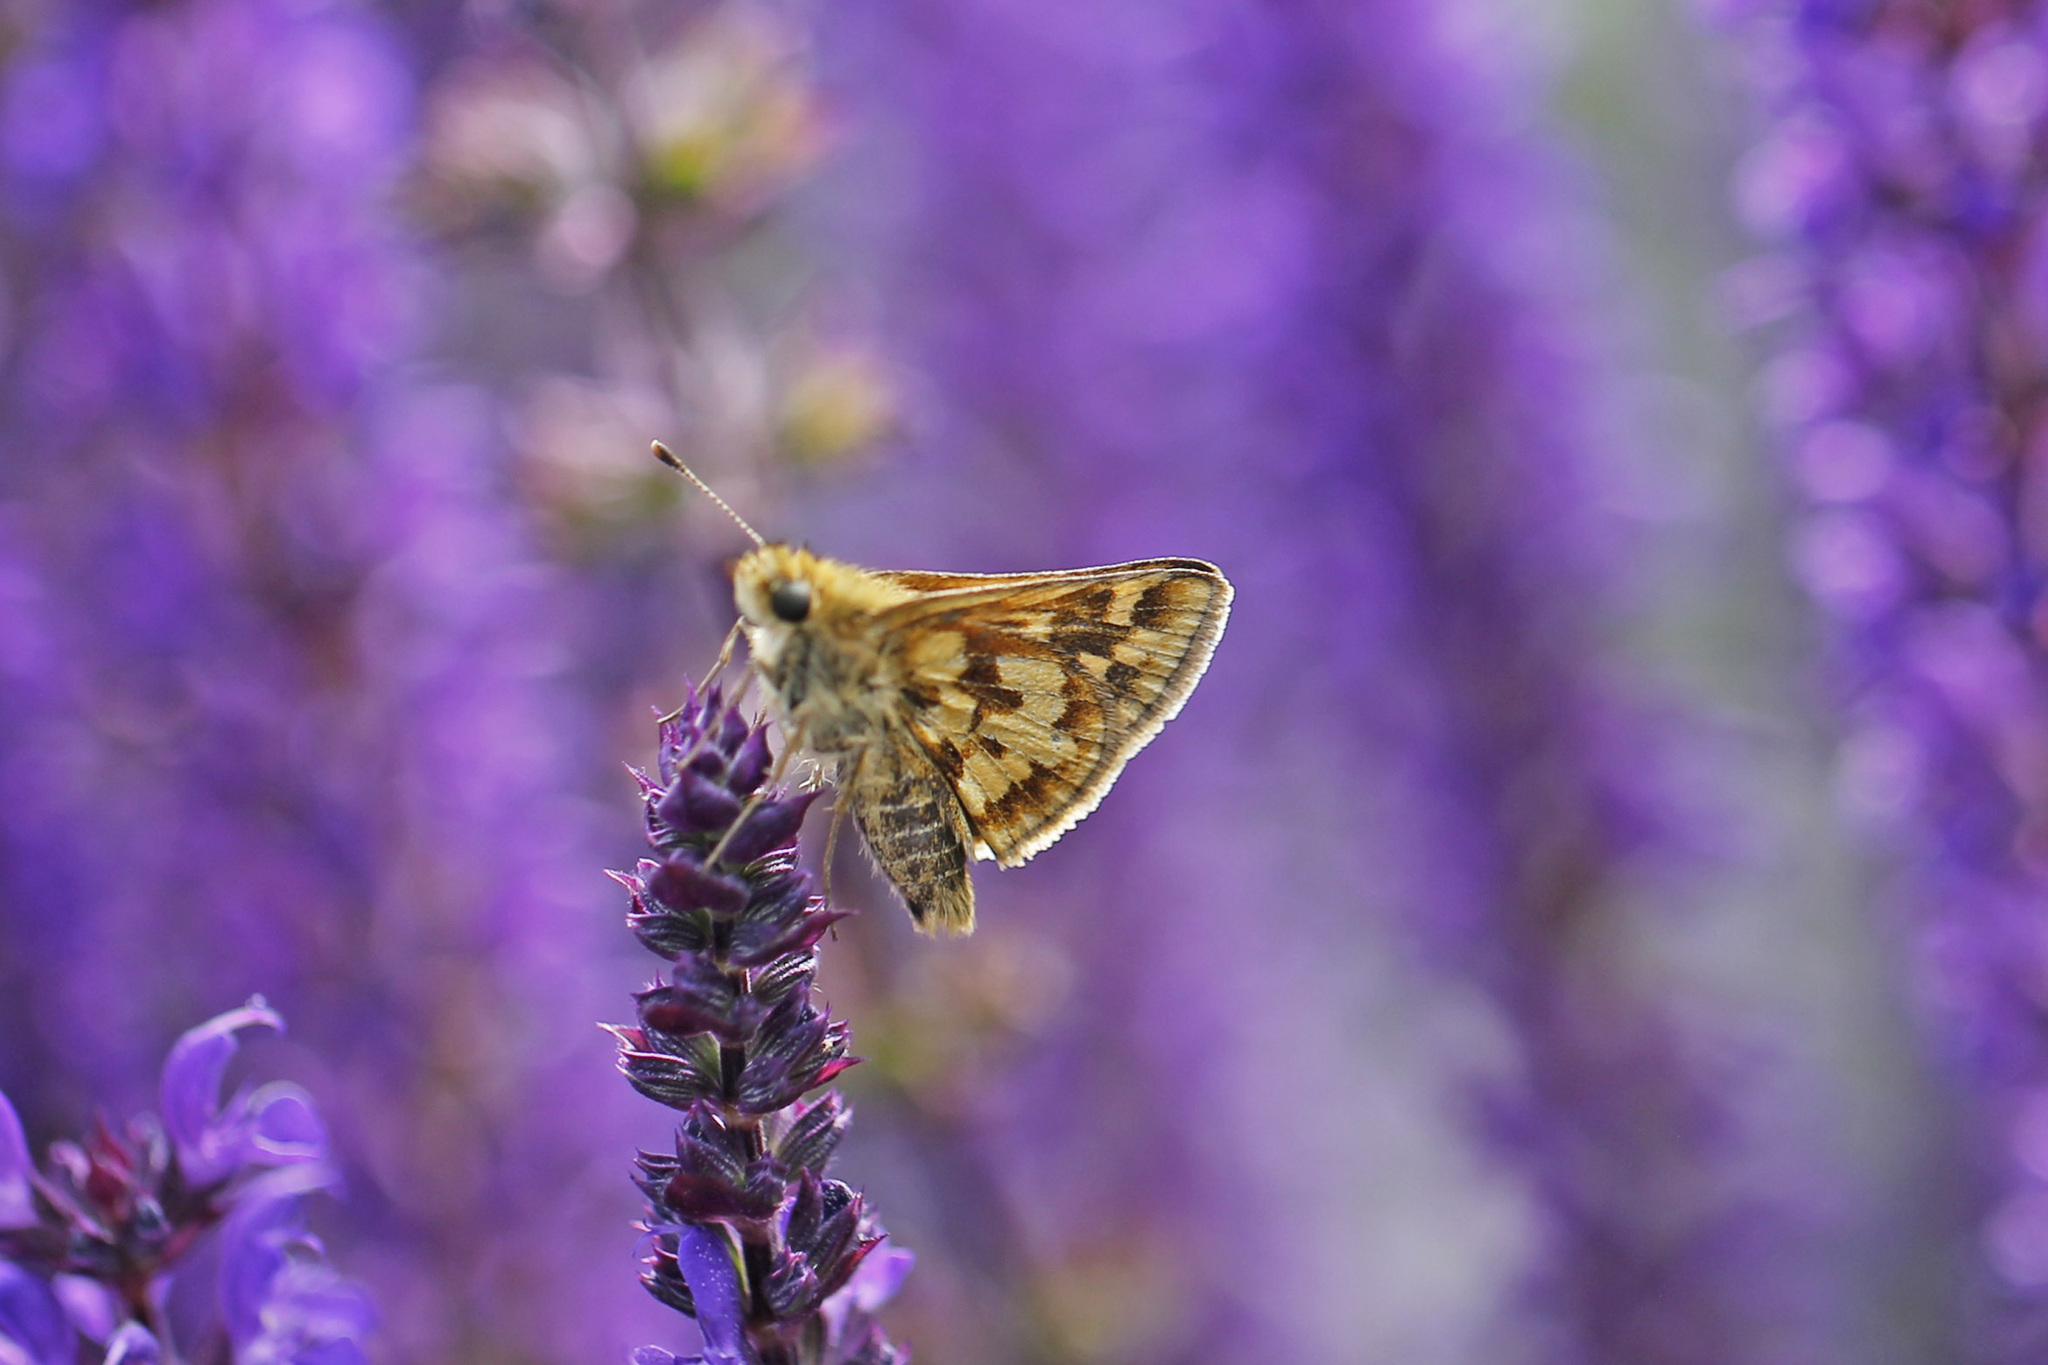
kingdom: Animalia
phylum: Arthropoda
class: Insecta
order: Lepidoptera
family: Hesperiidae
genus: Polites
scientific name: Polites coras
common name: Peck's skipper
